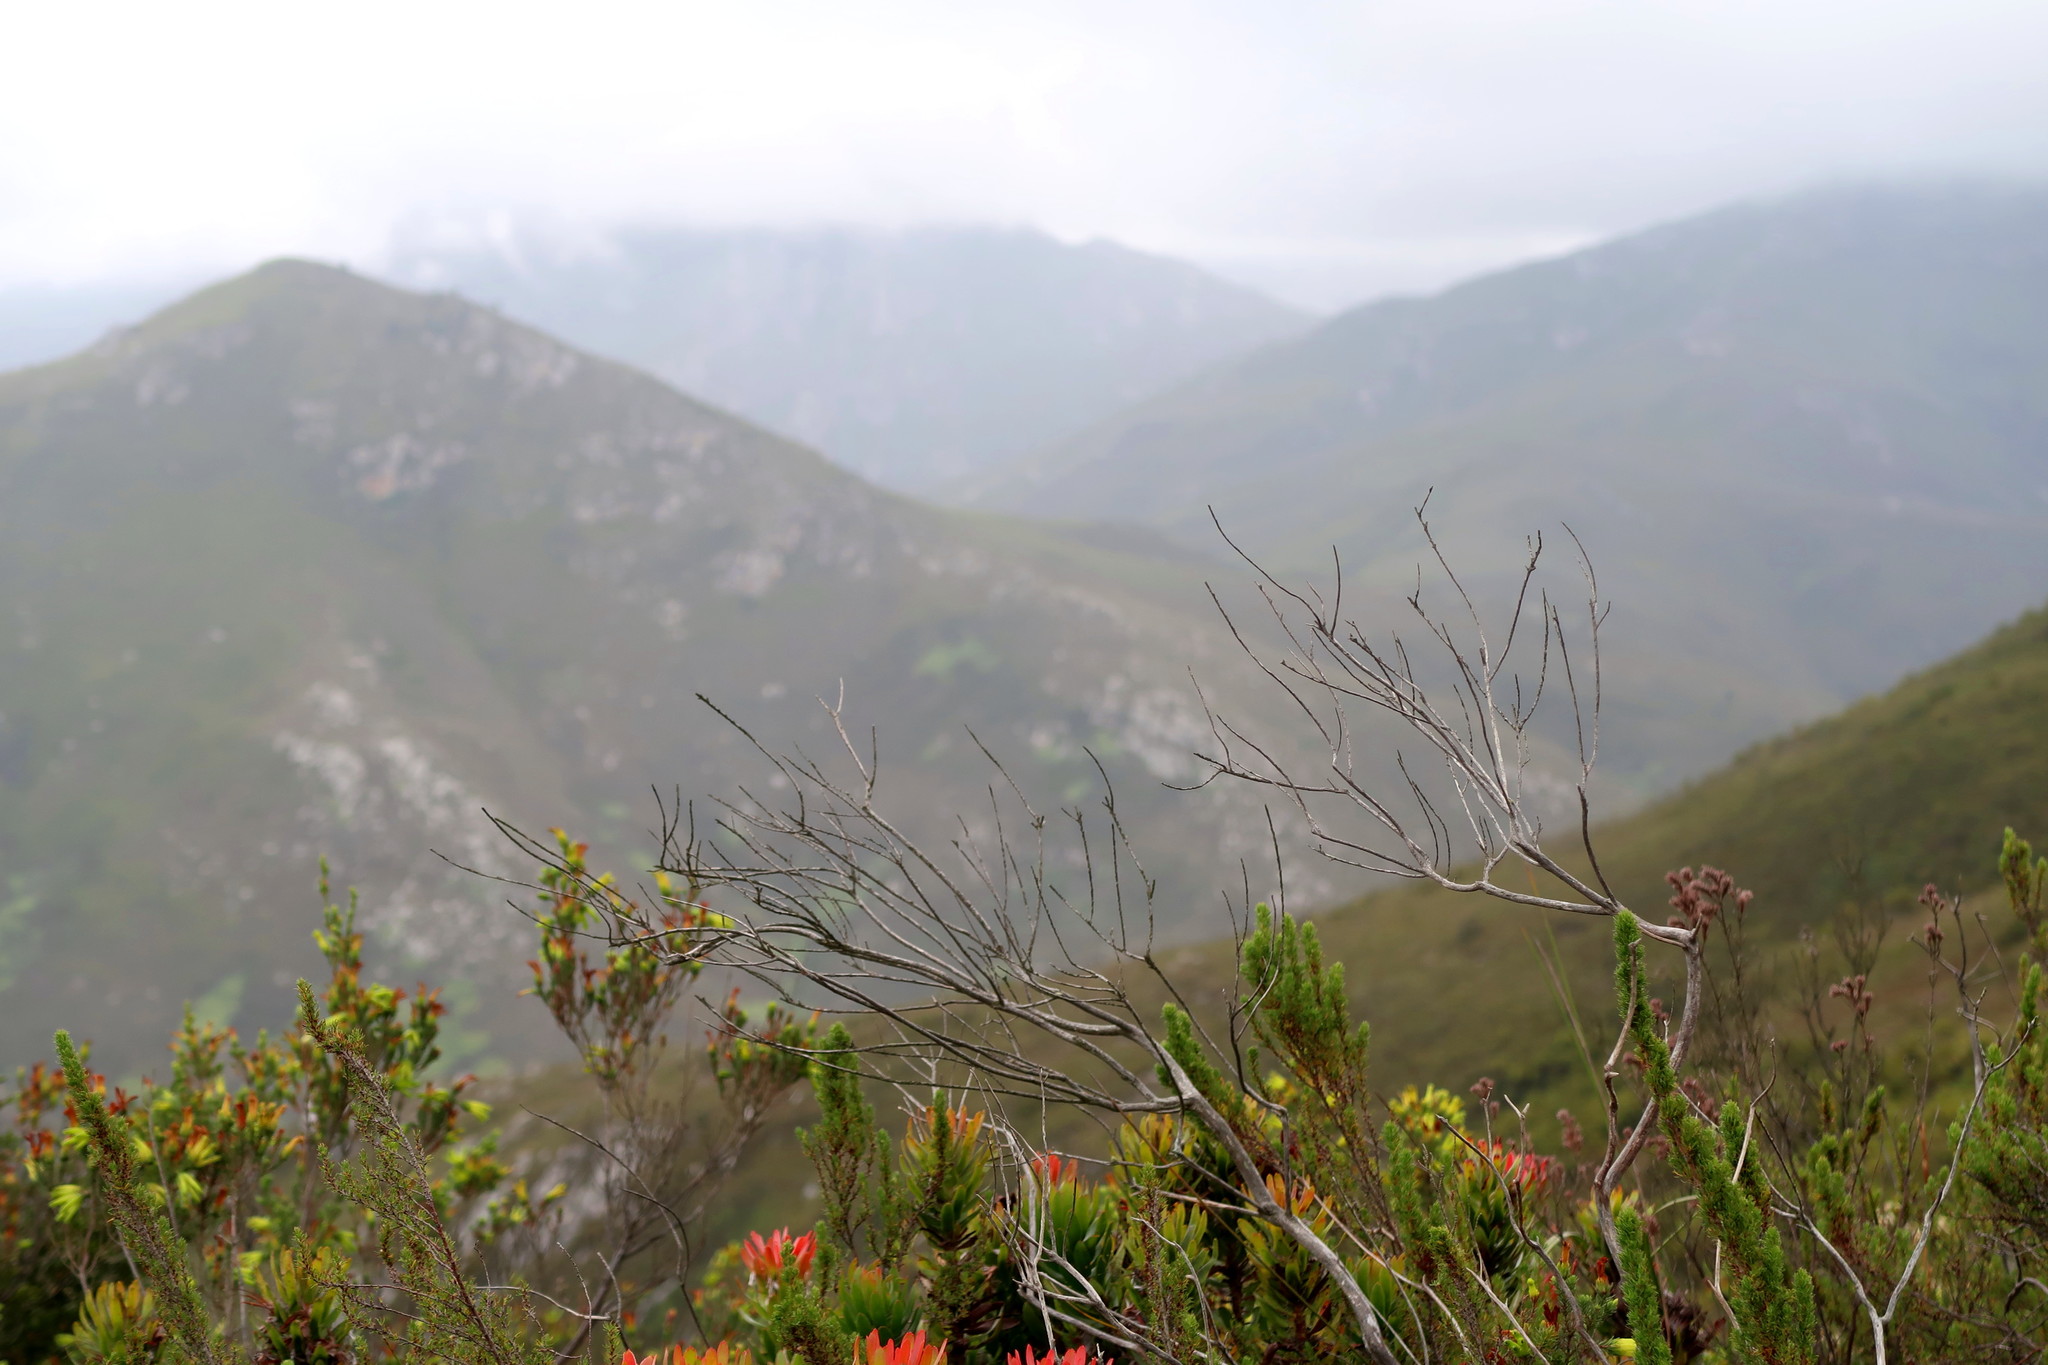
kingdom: Plantae
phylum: Tracheophyta
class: Magnoliopsida
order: Proteales
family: Proteaceae
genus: Mimetes
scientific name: Mimetes cucullatus
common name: Common pagoda
